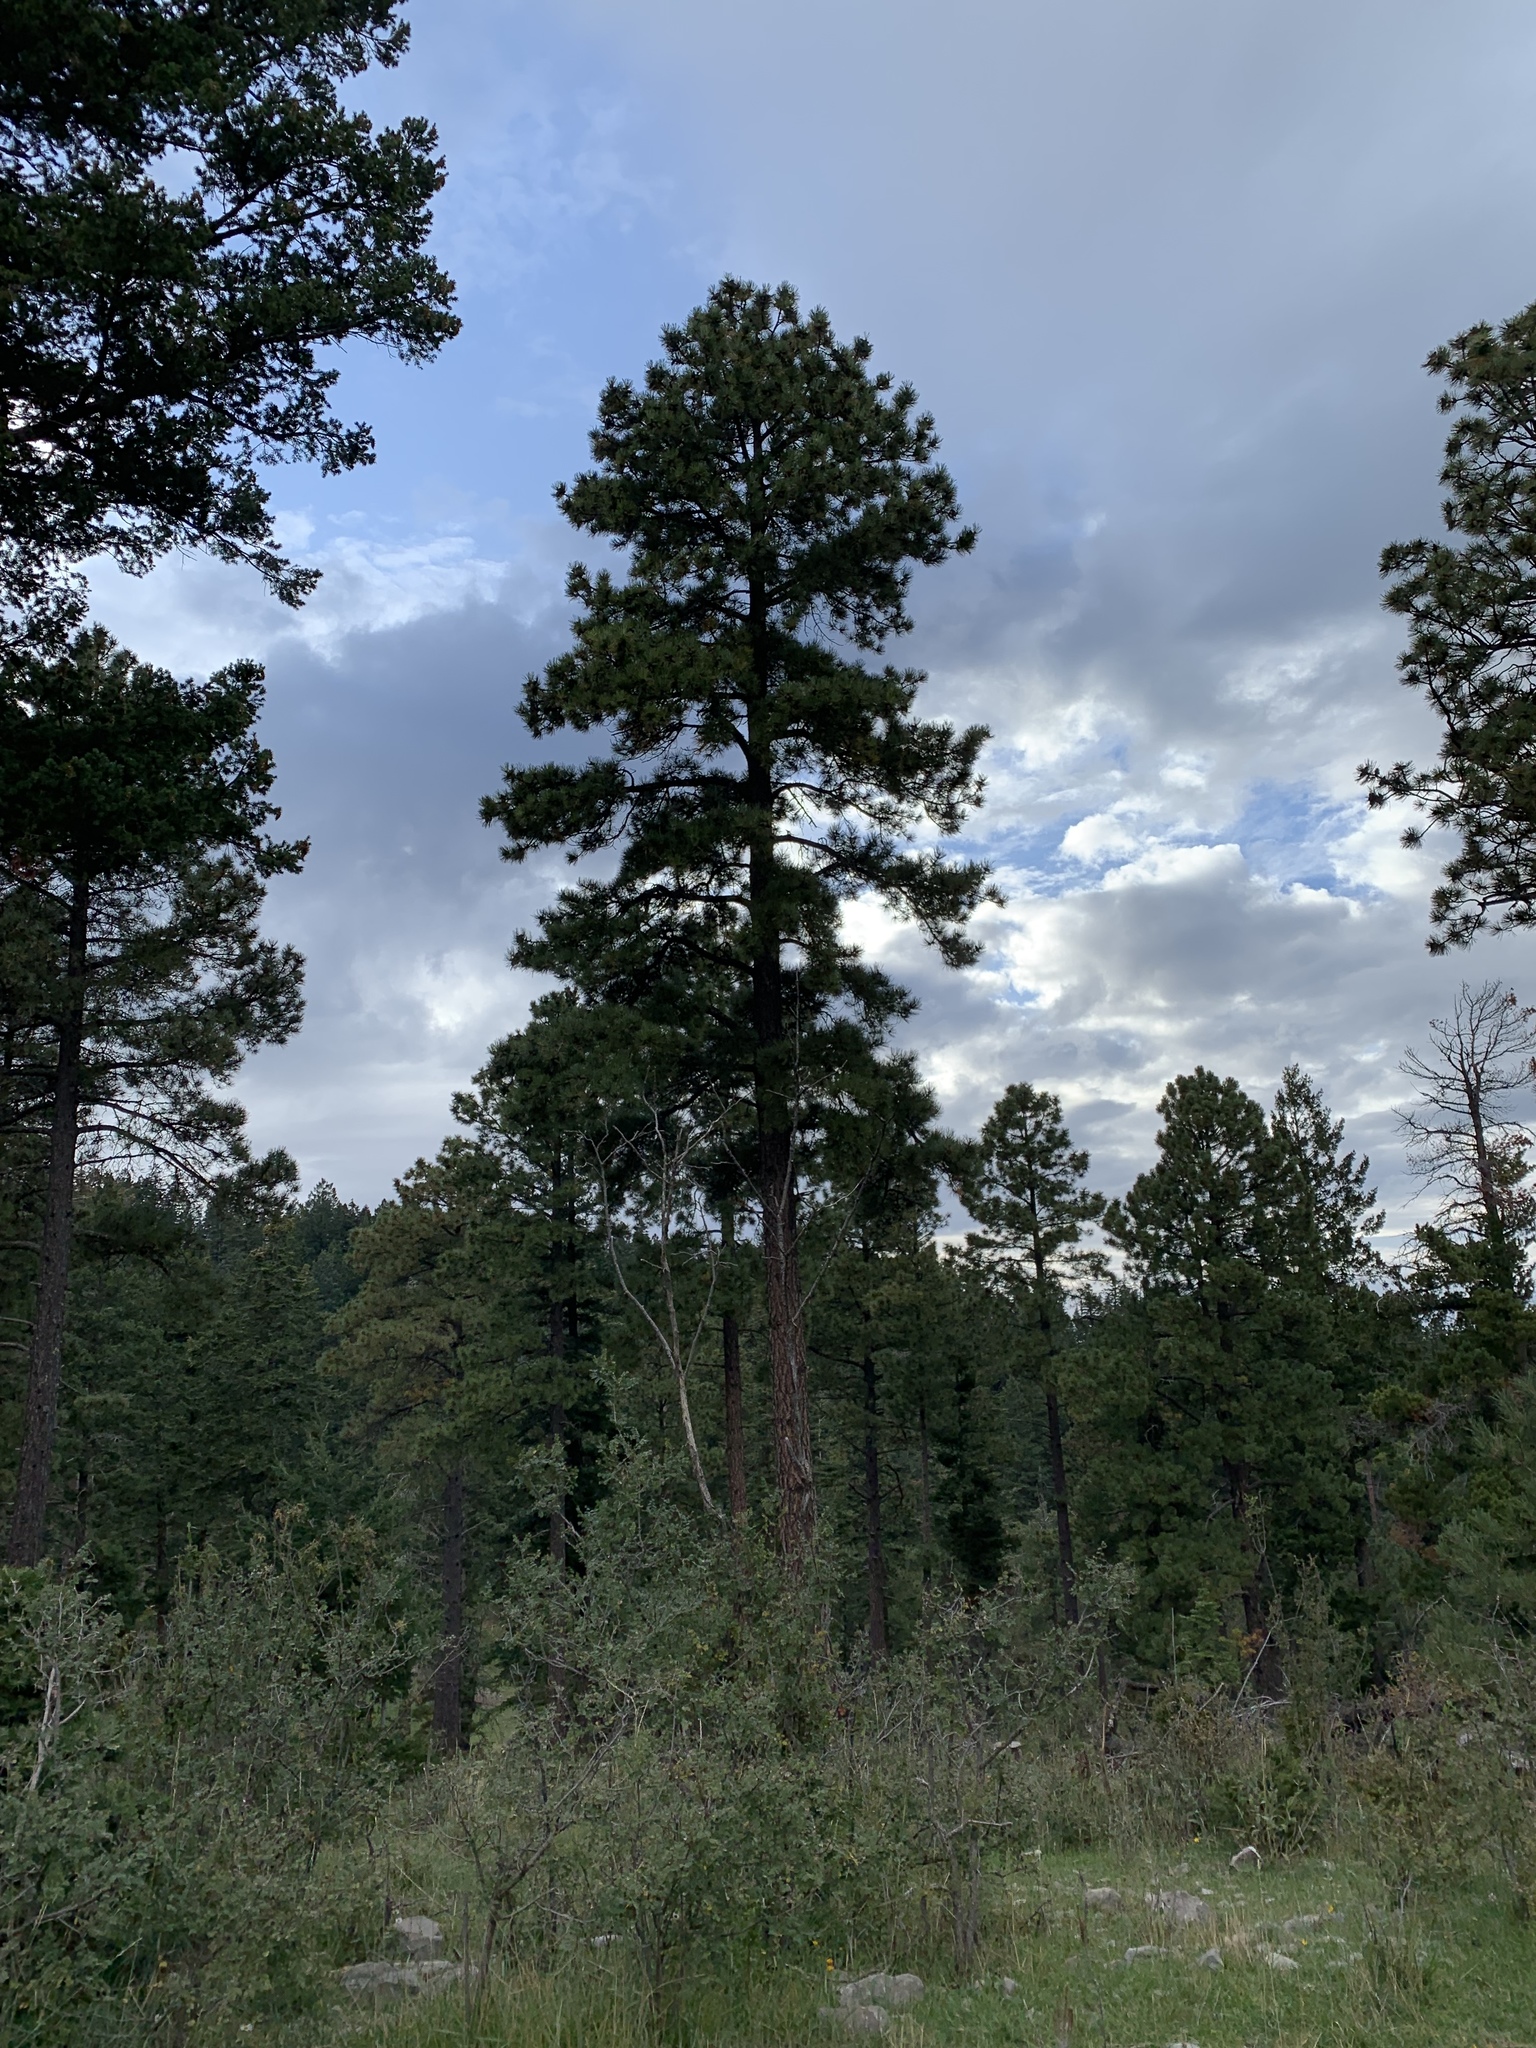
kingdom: Plantae
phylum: Tracheophyta
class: Pinopsida
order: Pinales
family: Pinaceae
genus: Pinus
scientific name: Pinus ponderosa
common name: Western yellow-pine
